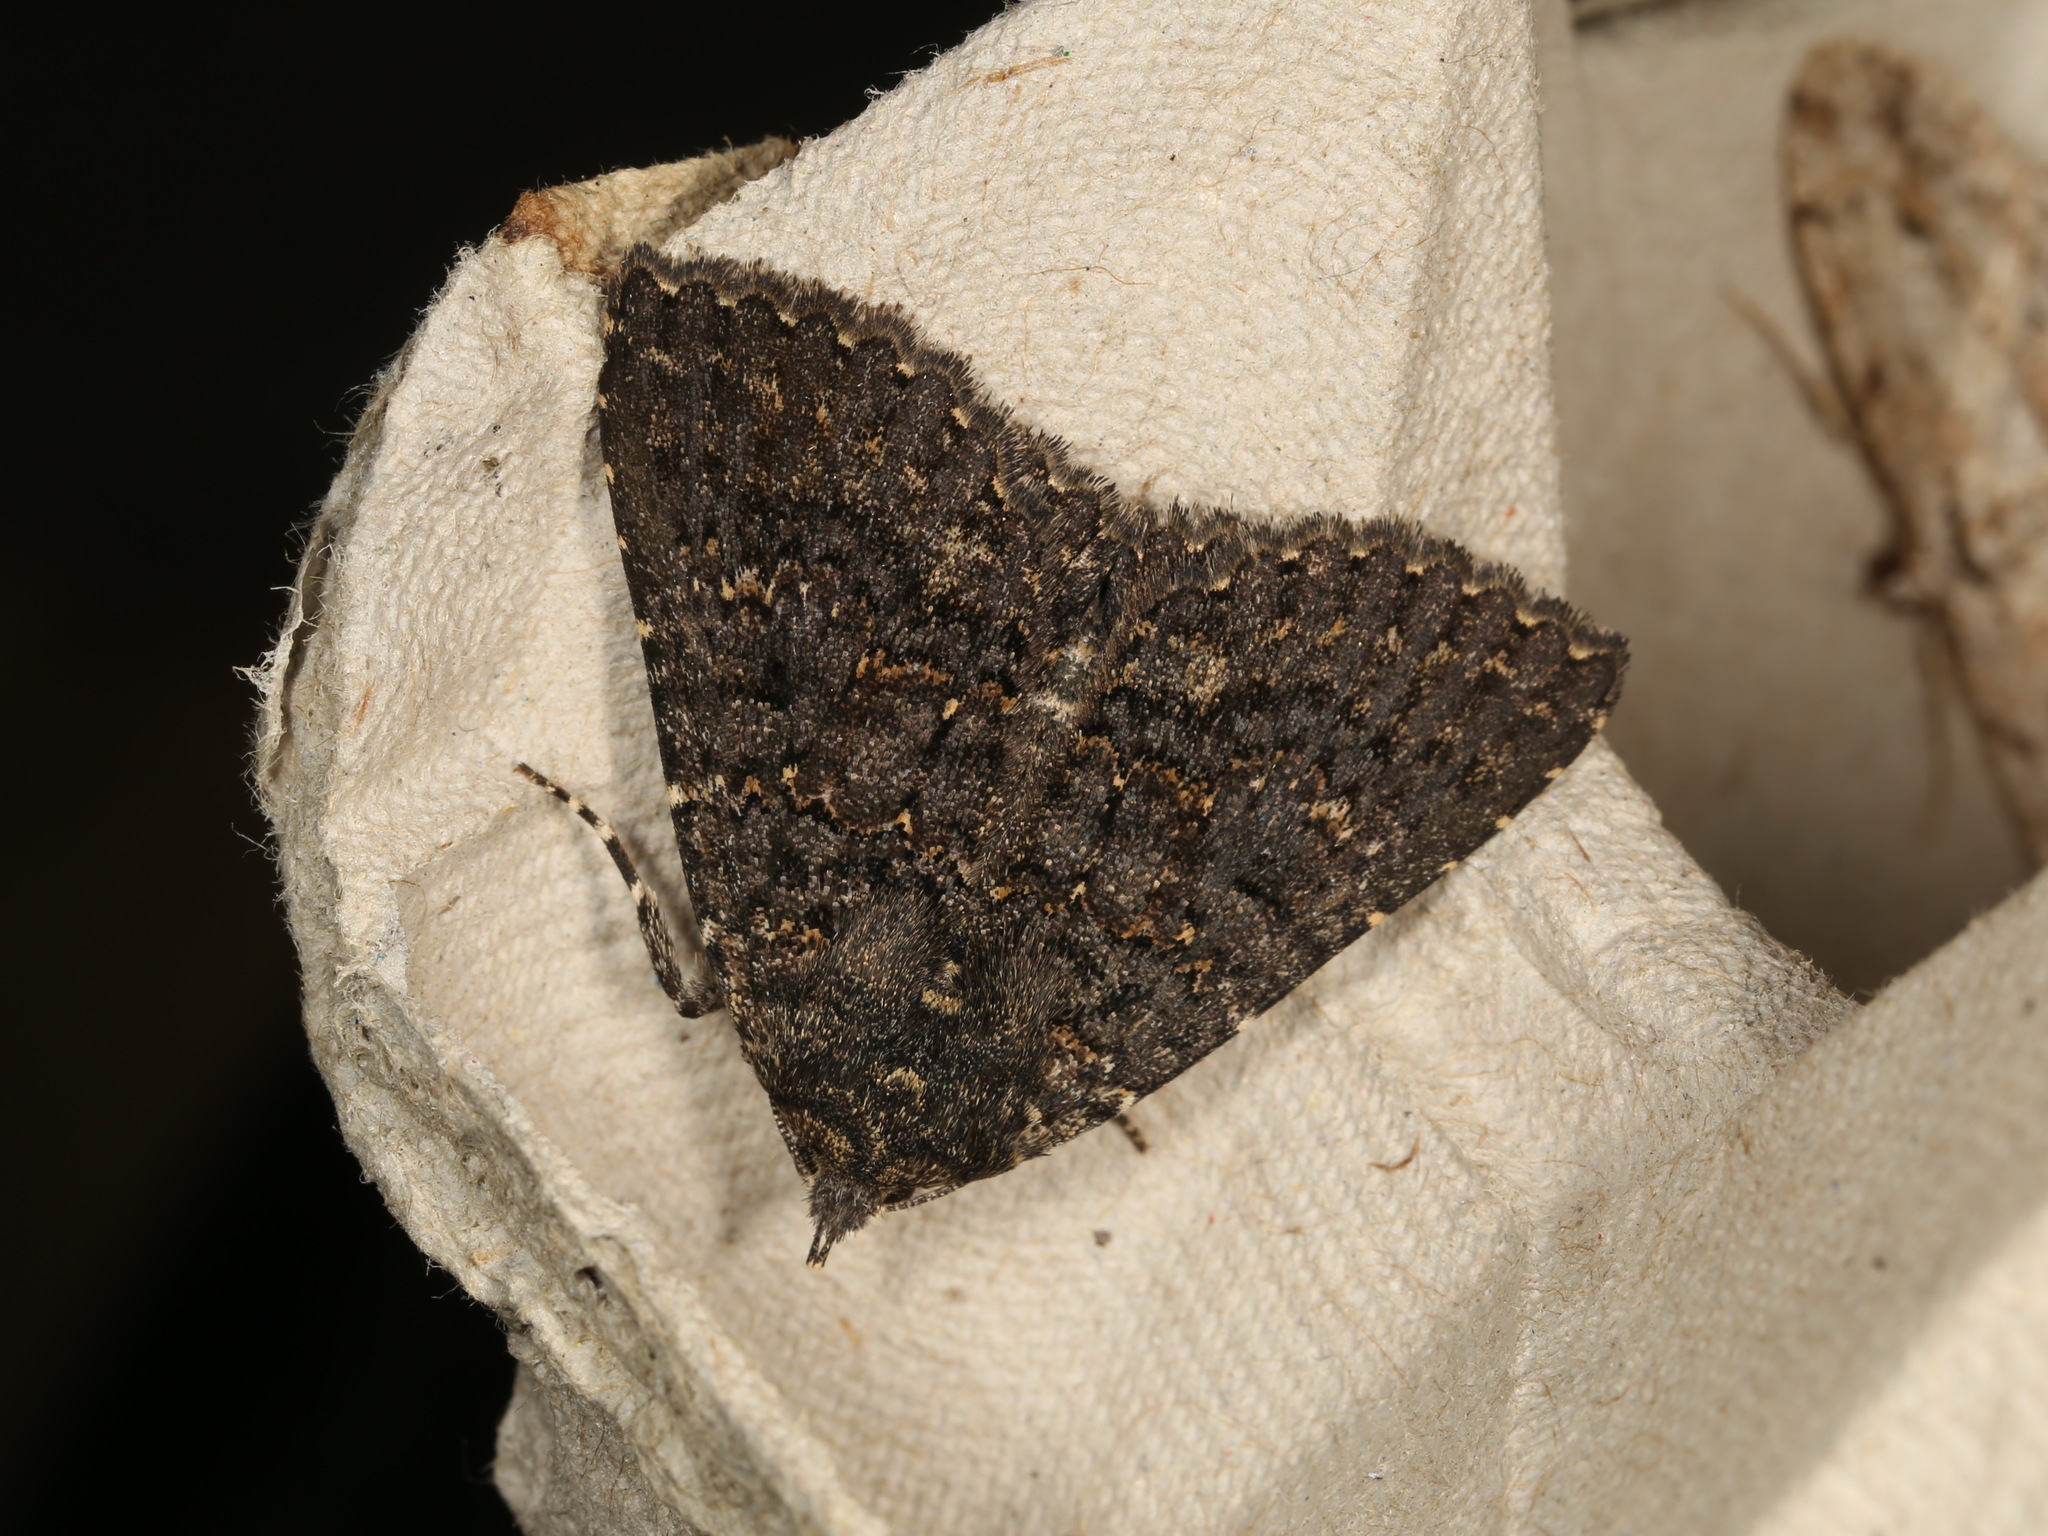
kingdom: Animalia
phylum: Arthropoda
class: Insecta
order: Lepidoptera
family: Erebidae
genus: Praxis
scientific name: Praxis edwardsii
